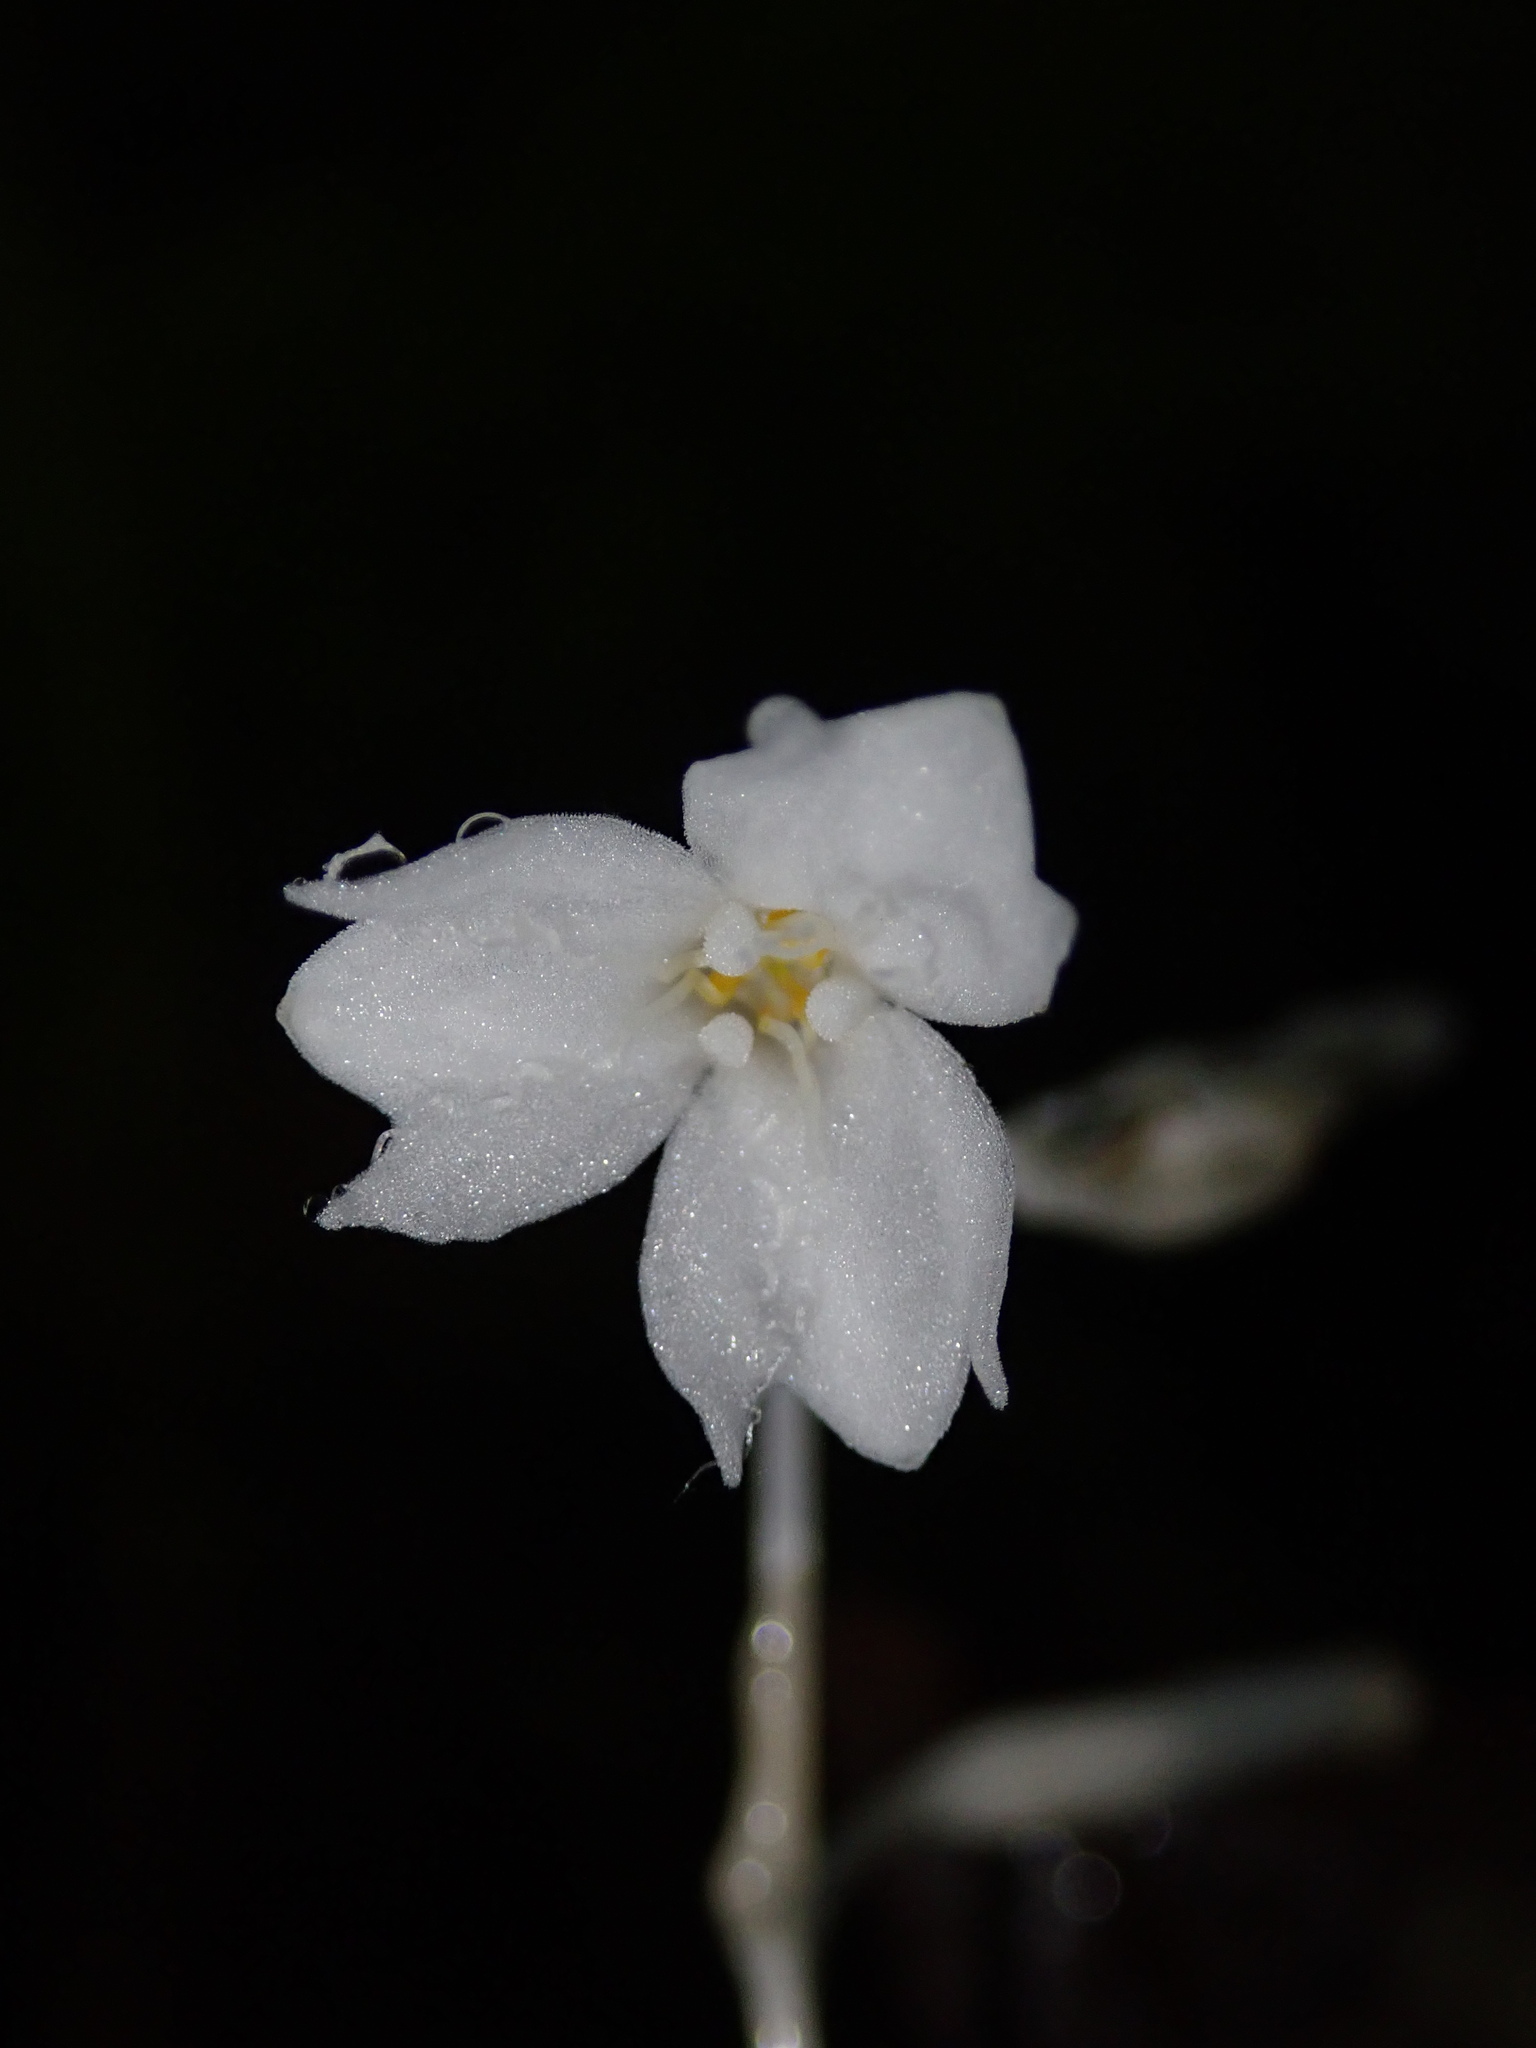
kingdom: Plantae
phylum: Tracheophyta
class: Liliopsida
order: Dioscoreales
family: Burmanniaceae
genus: Gymnosiphon
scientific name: Gymnosiphon suaveolens
